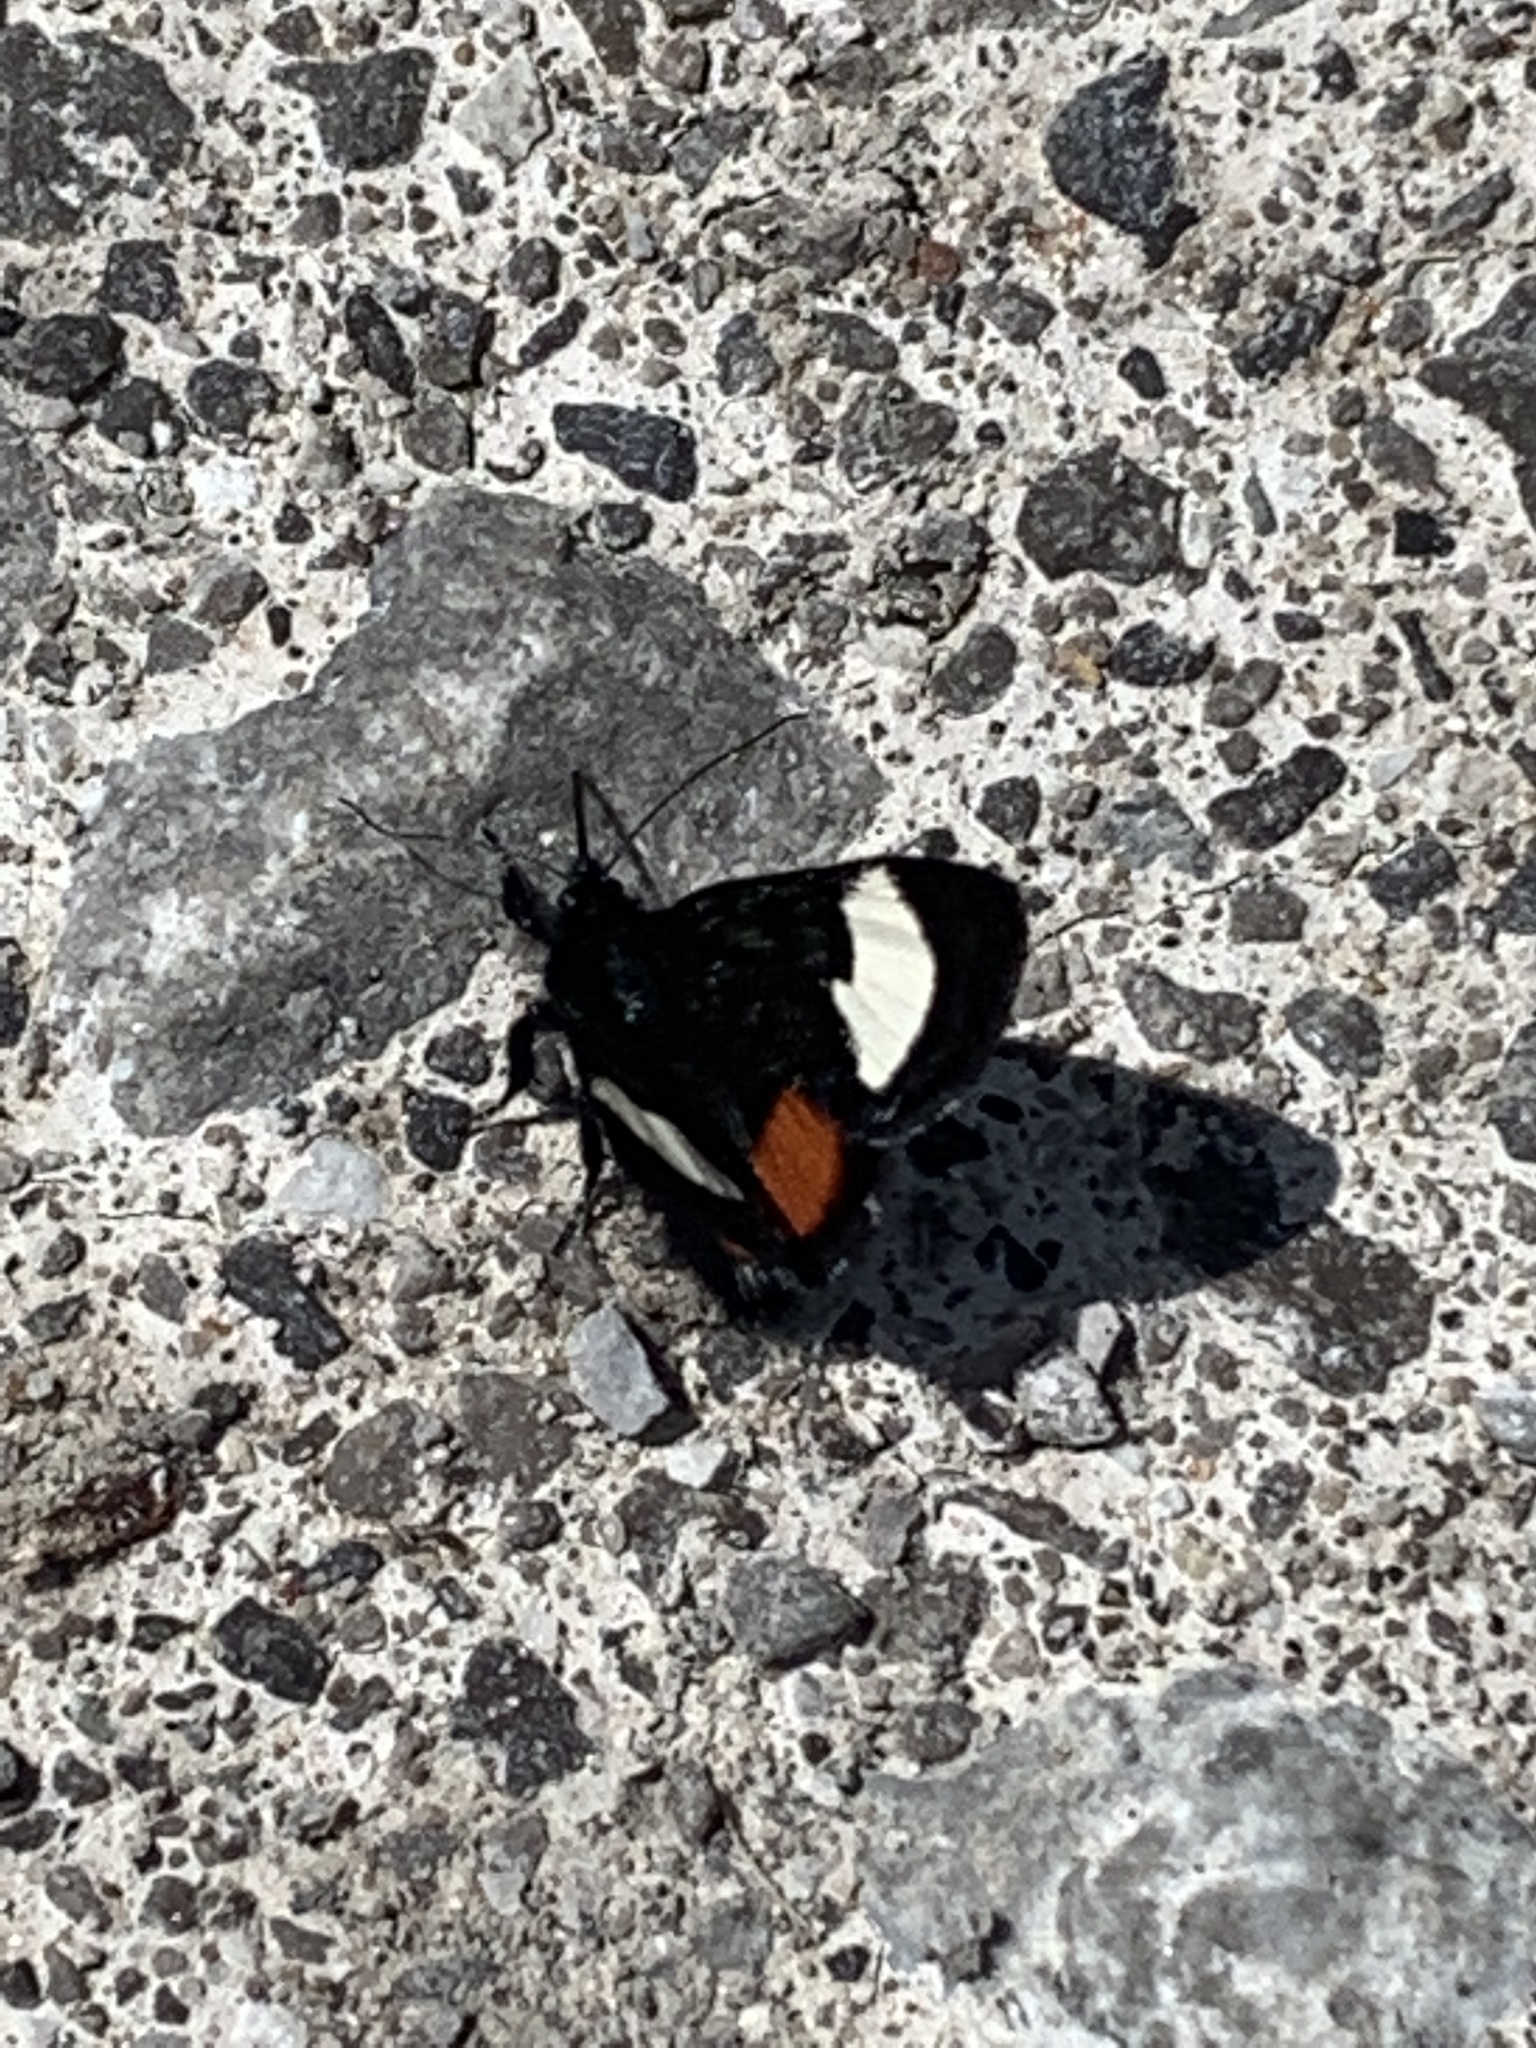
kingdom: Animalia
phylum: Arthropoda
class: Insecta
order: Lepidoptera
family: Noctuidae
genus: Psychomorpha
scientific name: Psychomorpha epimenis
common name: Grapevine epimenis moth
